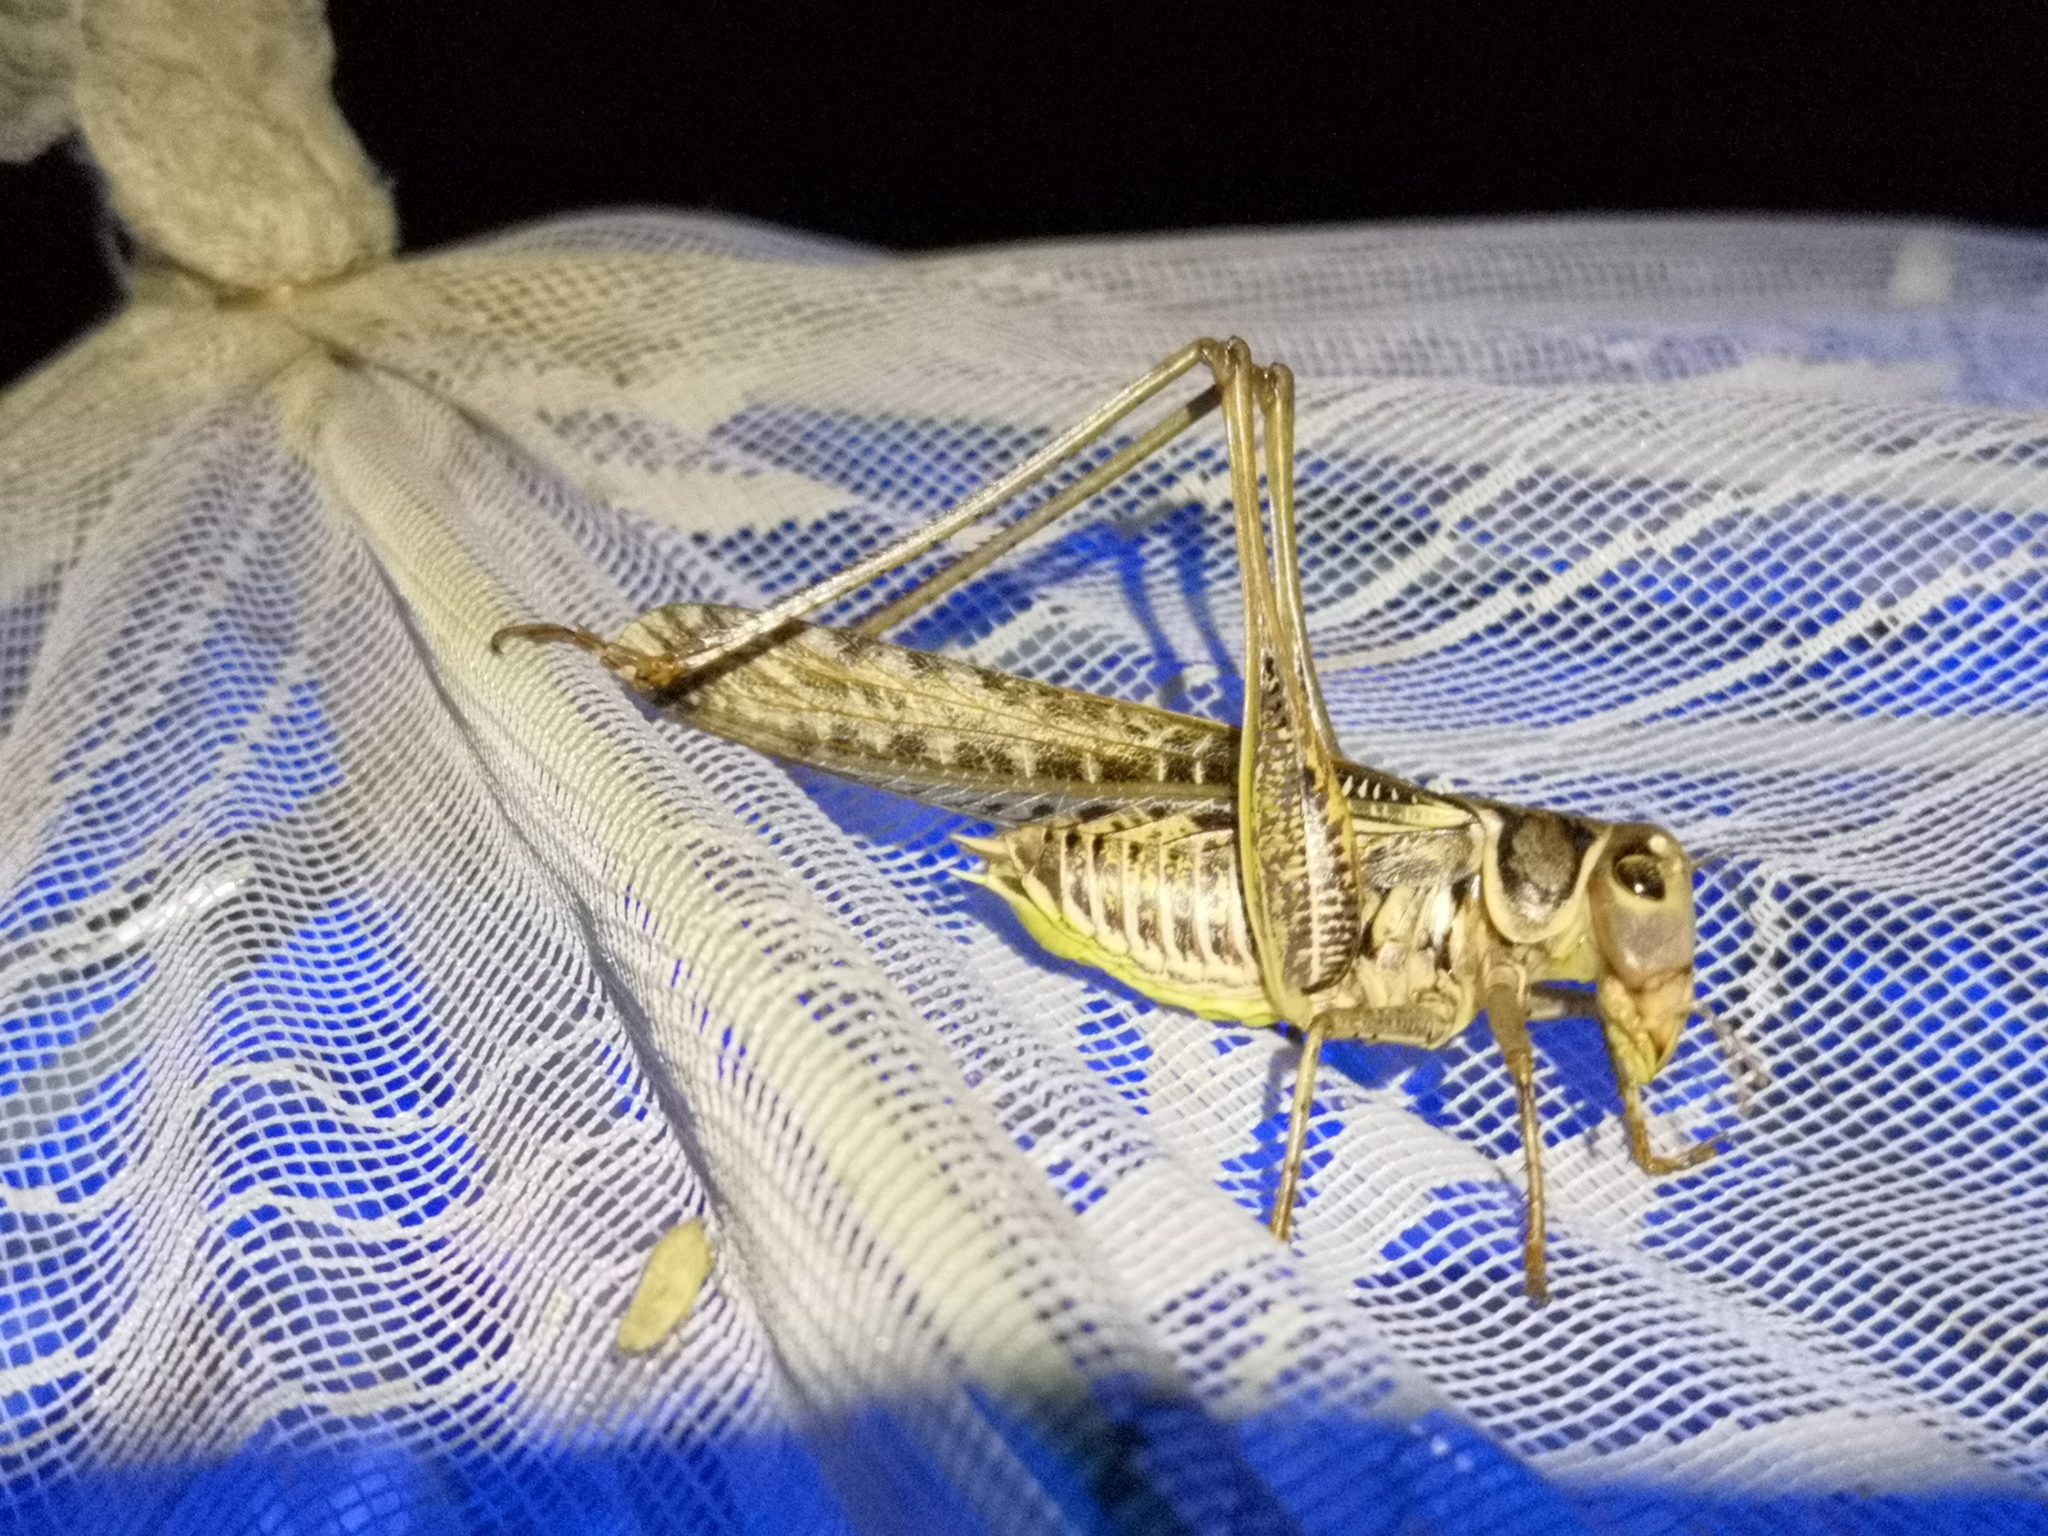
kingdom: Animalia
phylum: Arthropoda
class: Insecta
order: Orthoptera
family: Tettigoniidae
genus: Decticus
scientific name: Decticus albifrons
